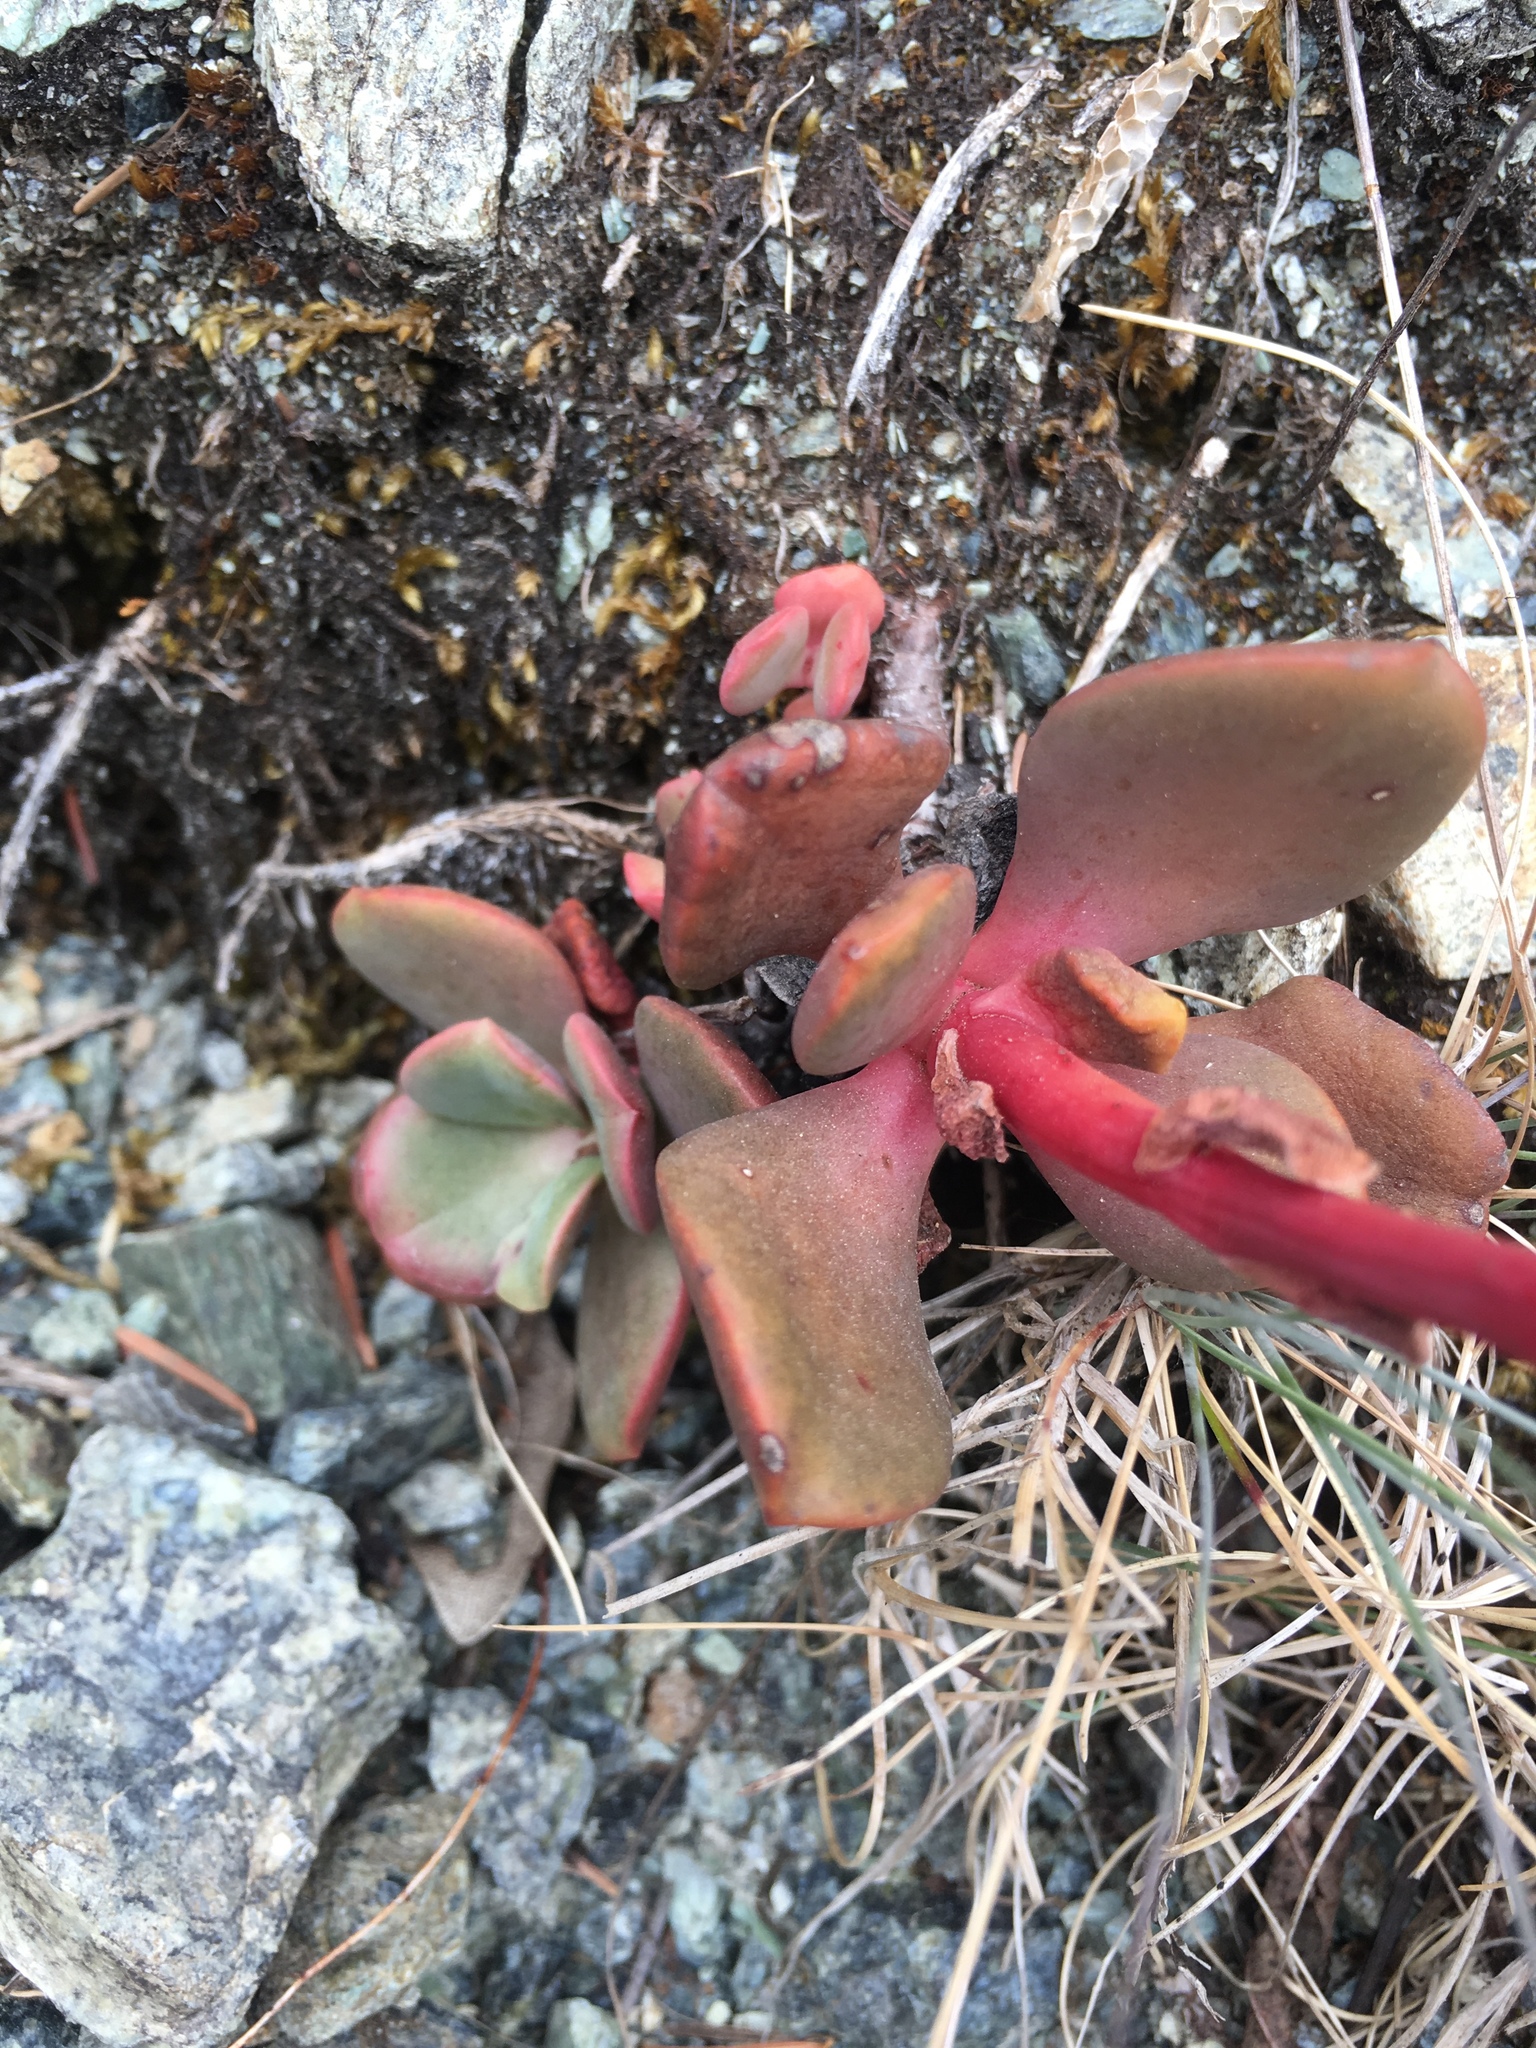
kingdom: Plantae
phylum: Tracheophyta
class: Magnoliopsida
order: Saxifragales
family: Crassulaceae
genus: Sedum
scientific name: Sedum laxum
